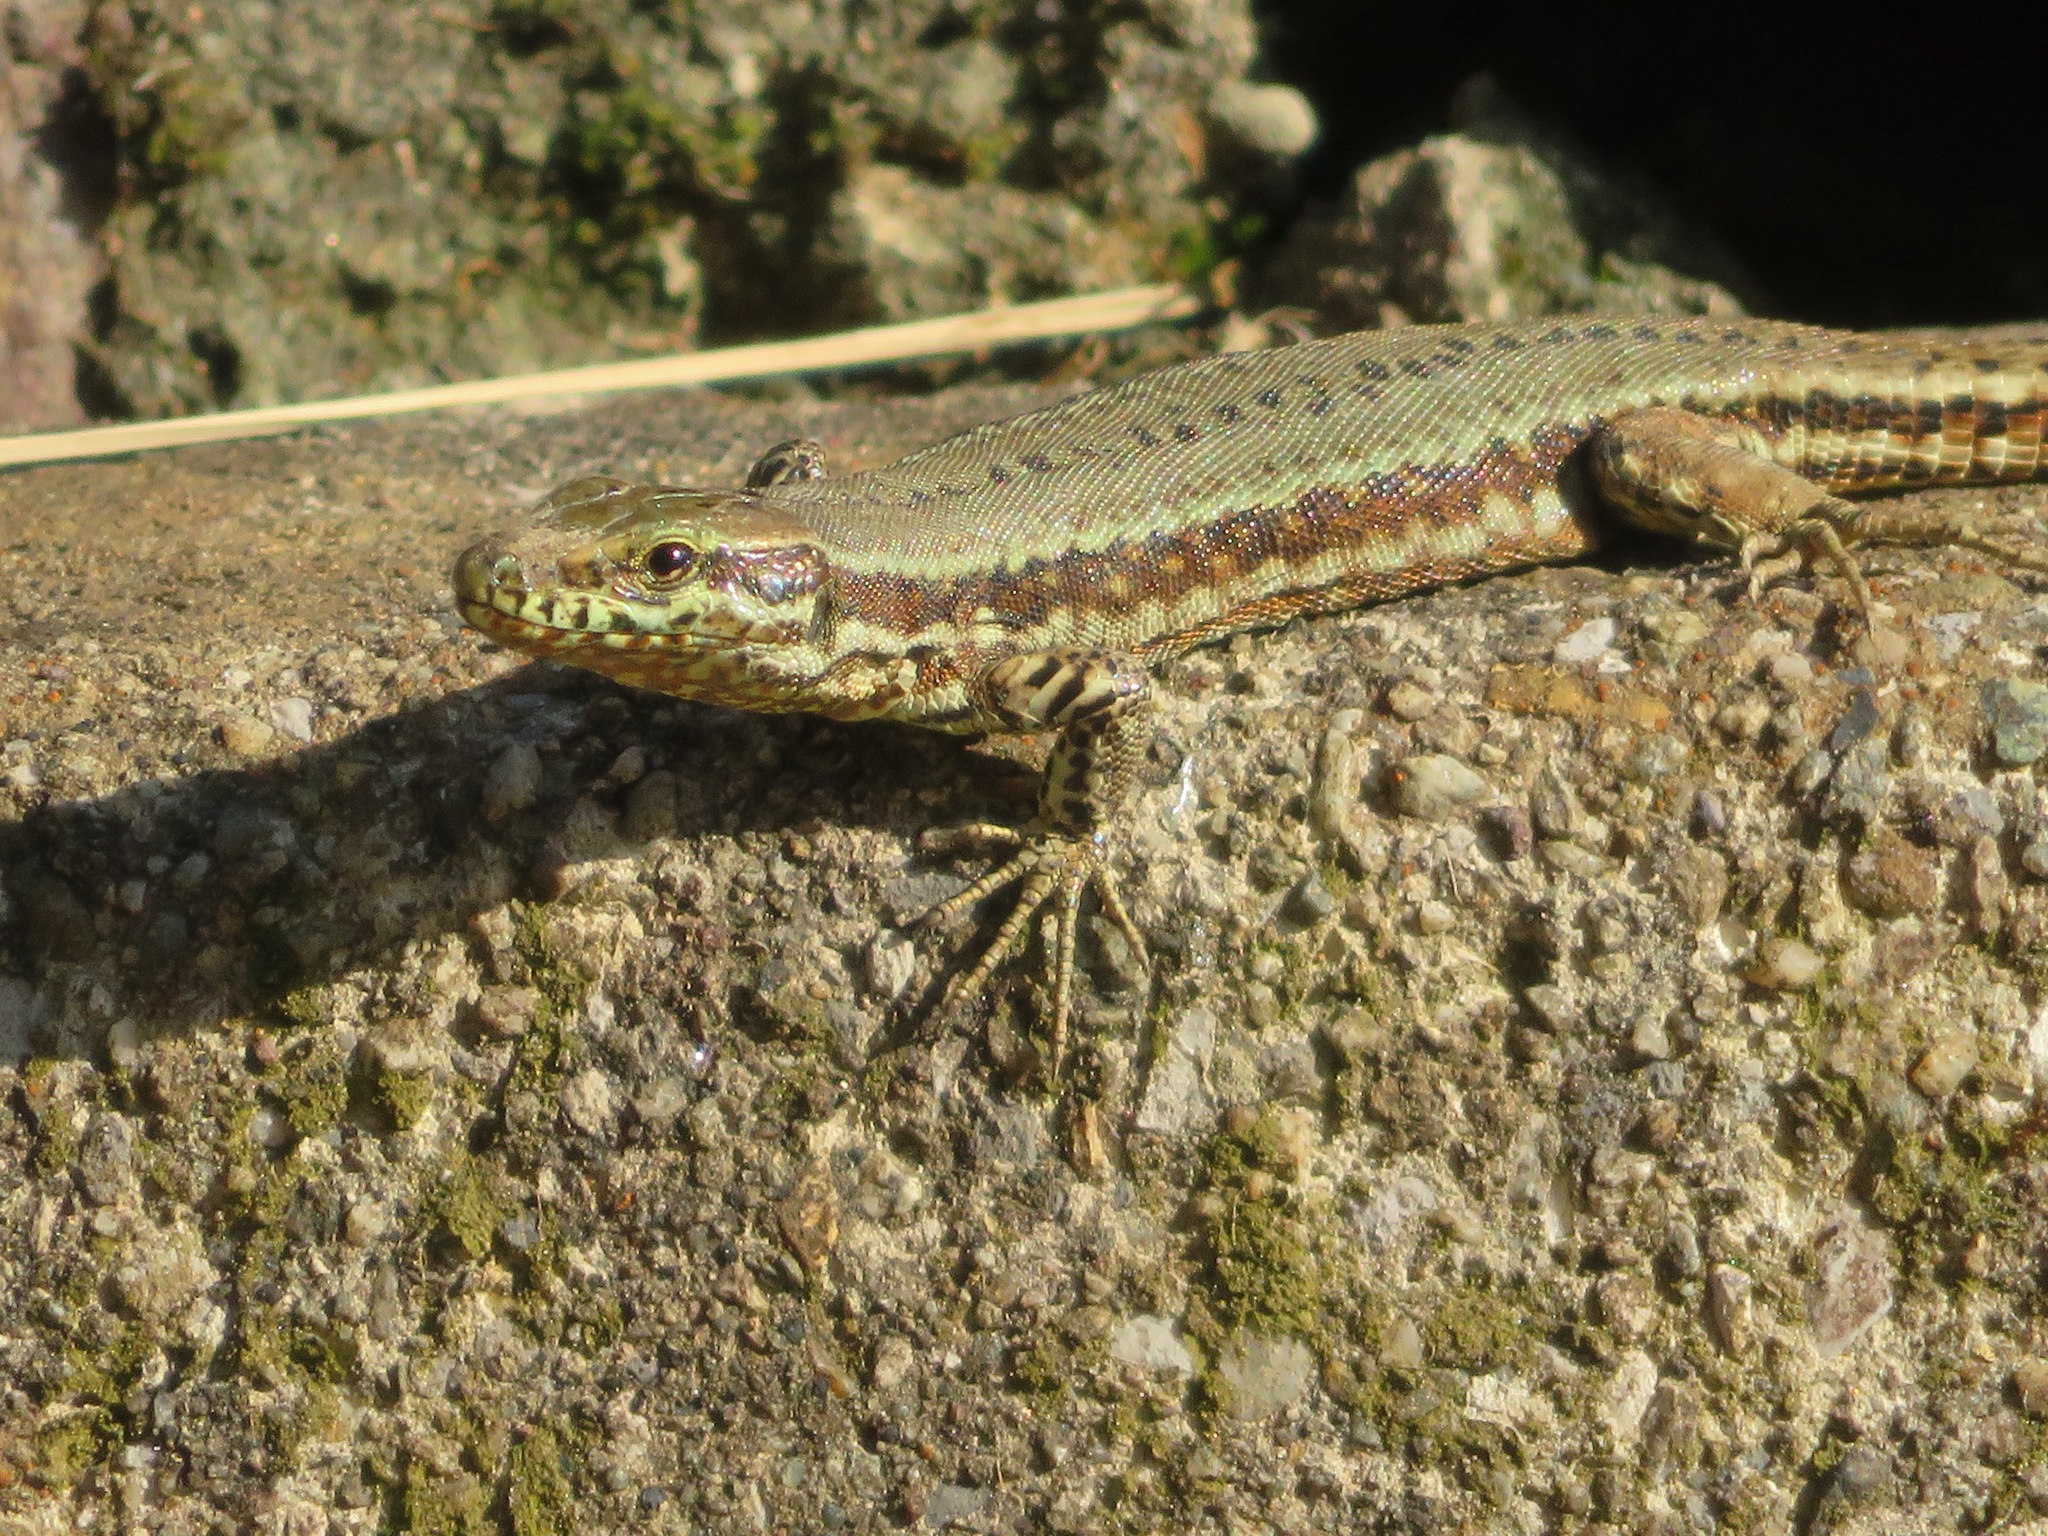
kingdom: Animalia
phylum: Chordata
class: Squamata
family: Lacertidae
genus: Podarcis
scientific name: Podarcis muralis
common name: Common wall lizard
